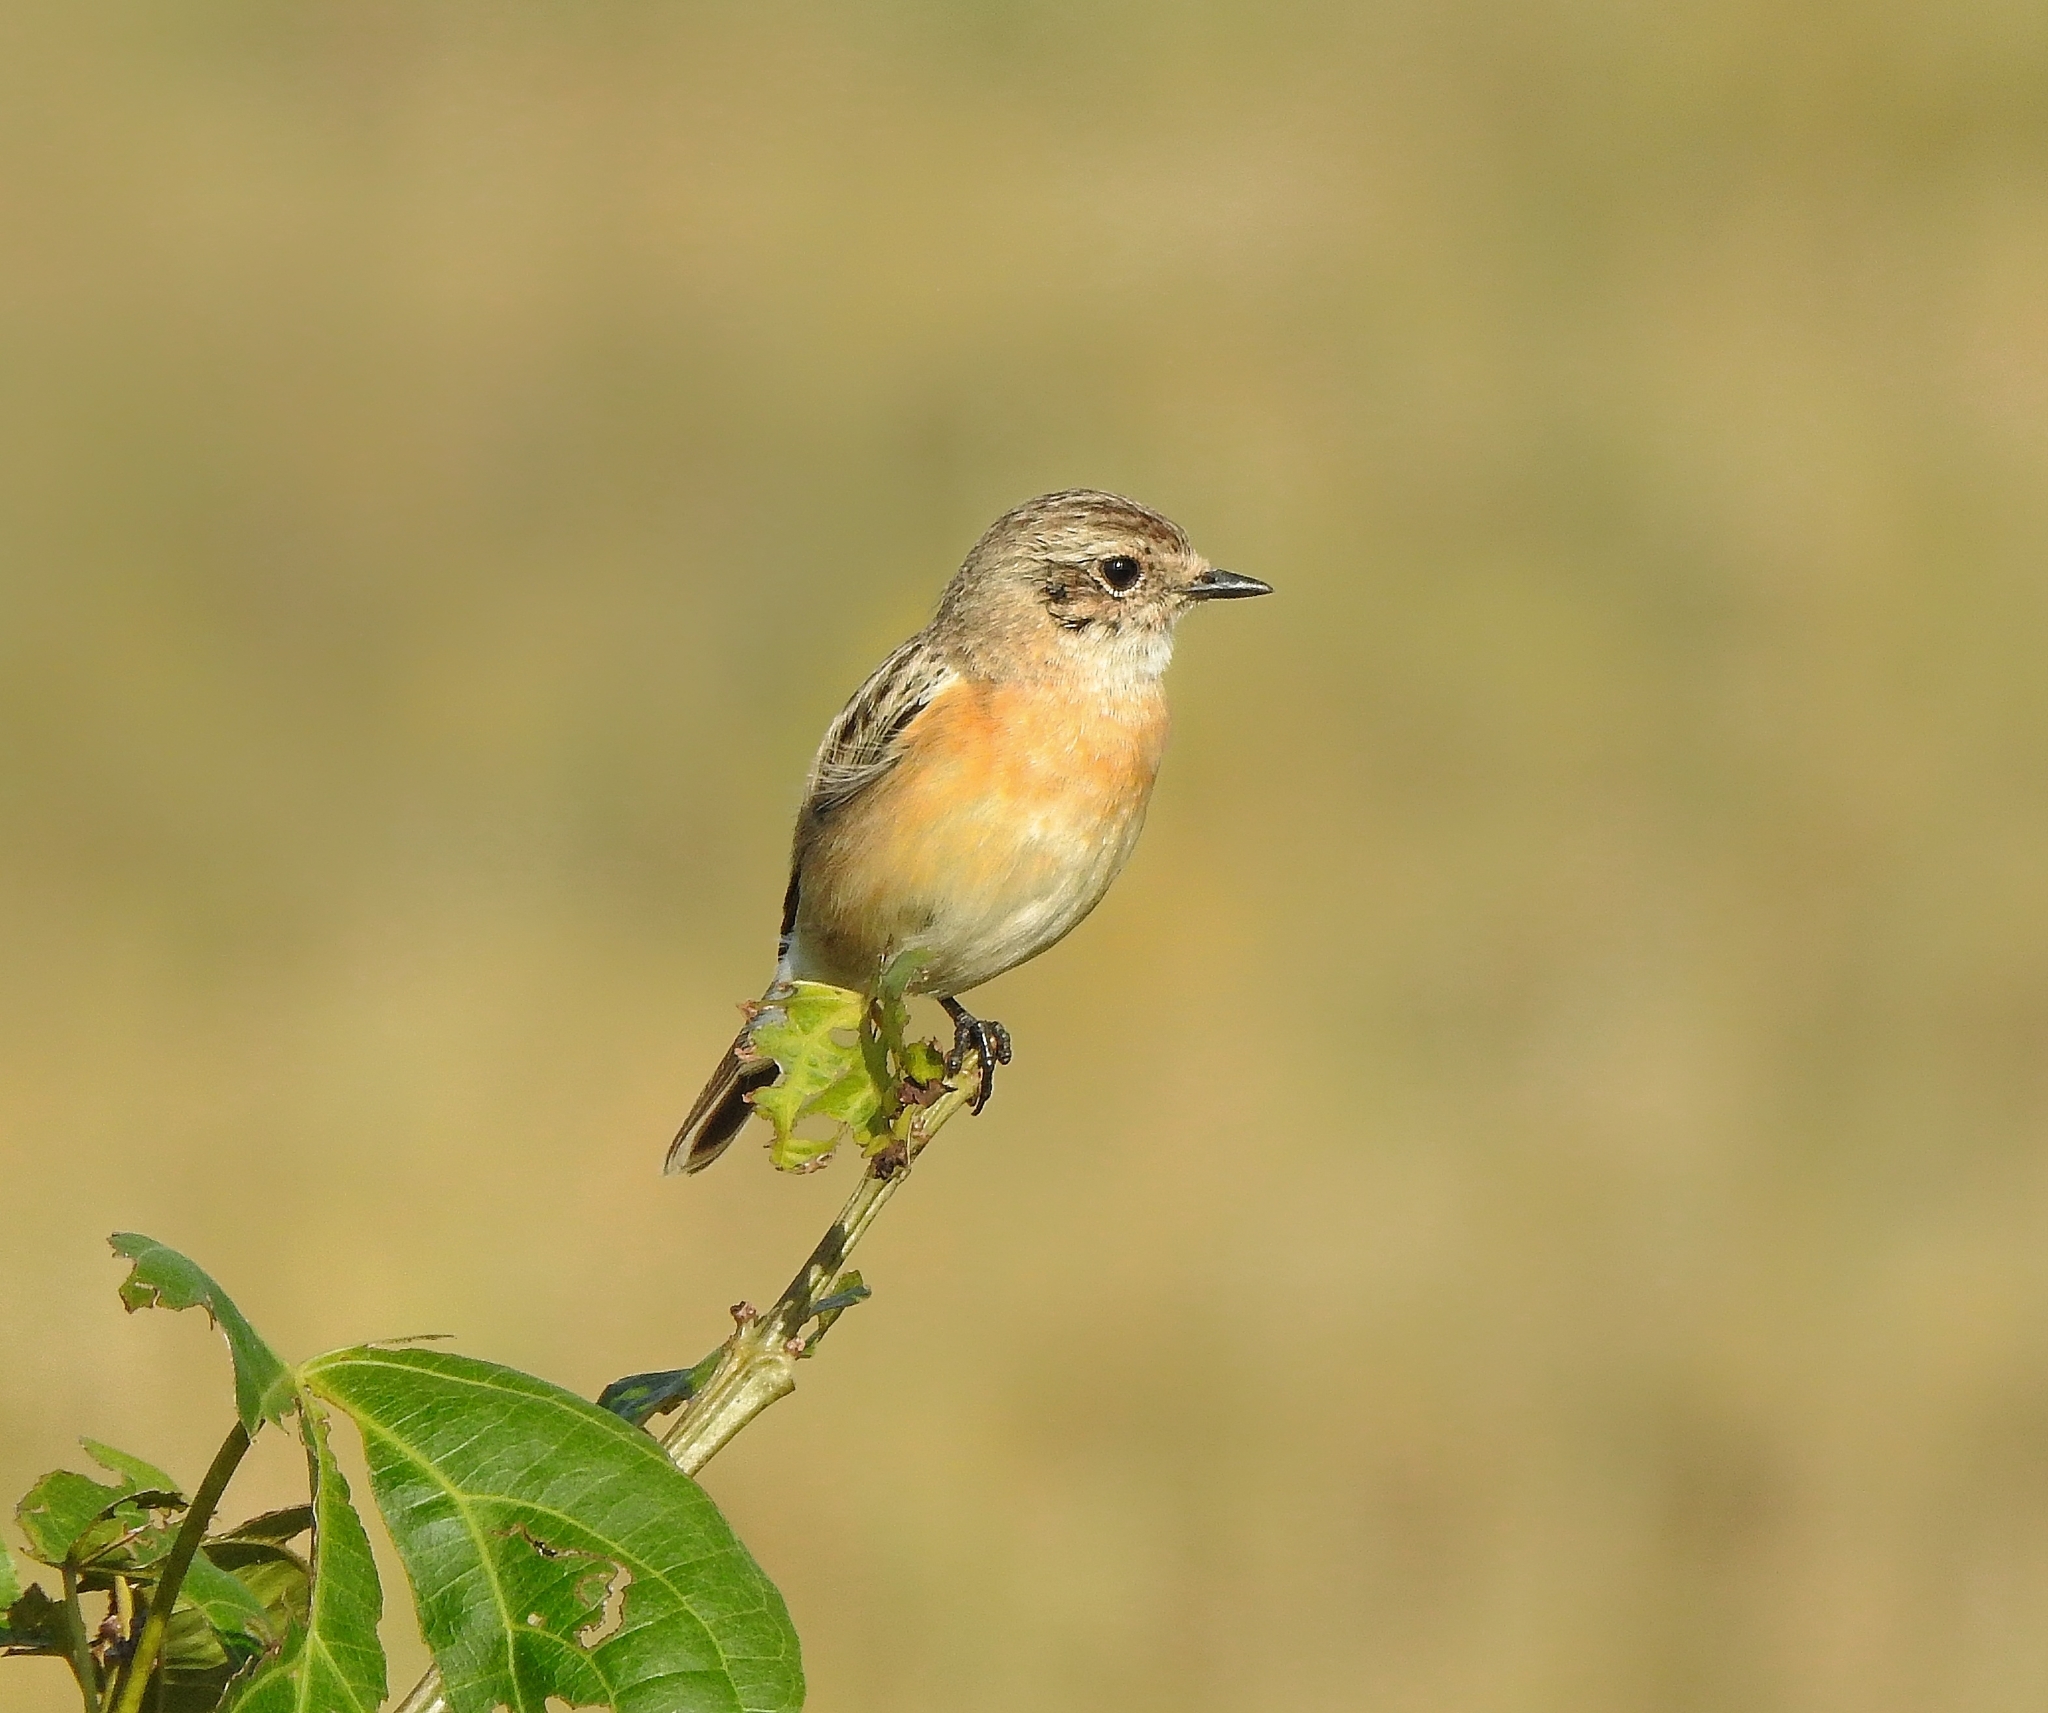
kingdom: Animalia
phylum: Chordata
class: Aves
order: Passeriformes
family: Muscicapidae
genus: Saxicola
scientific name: Saxicola maurus
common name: Siberian stonechat
